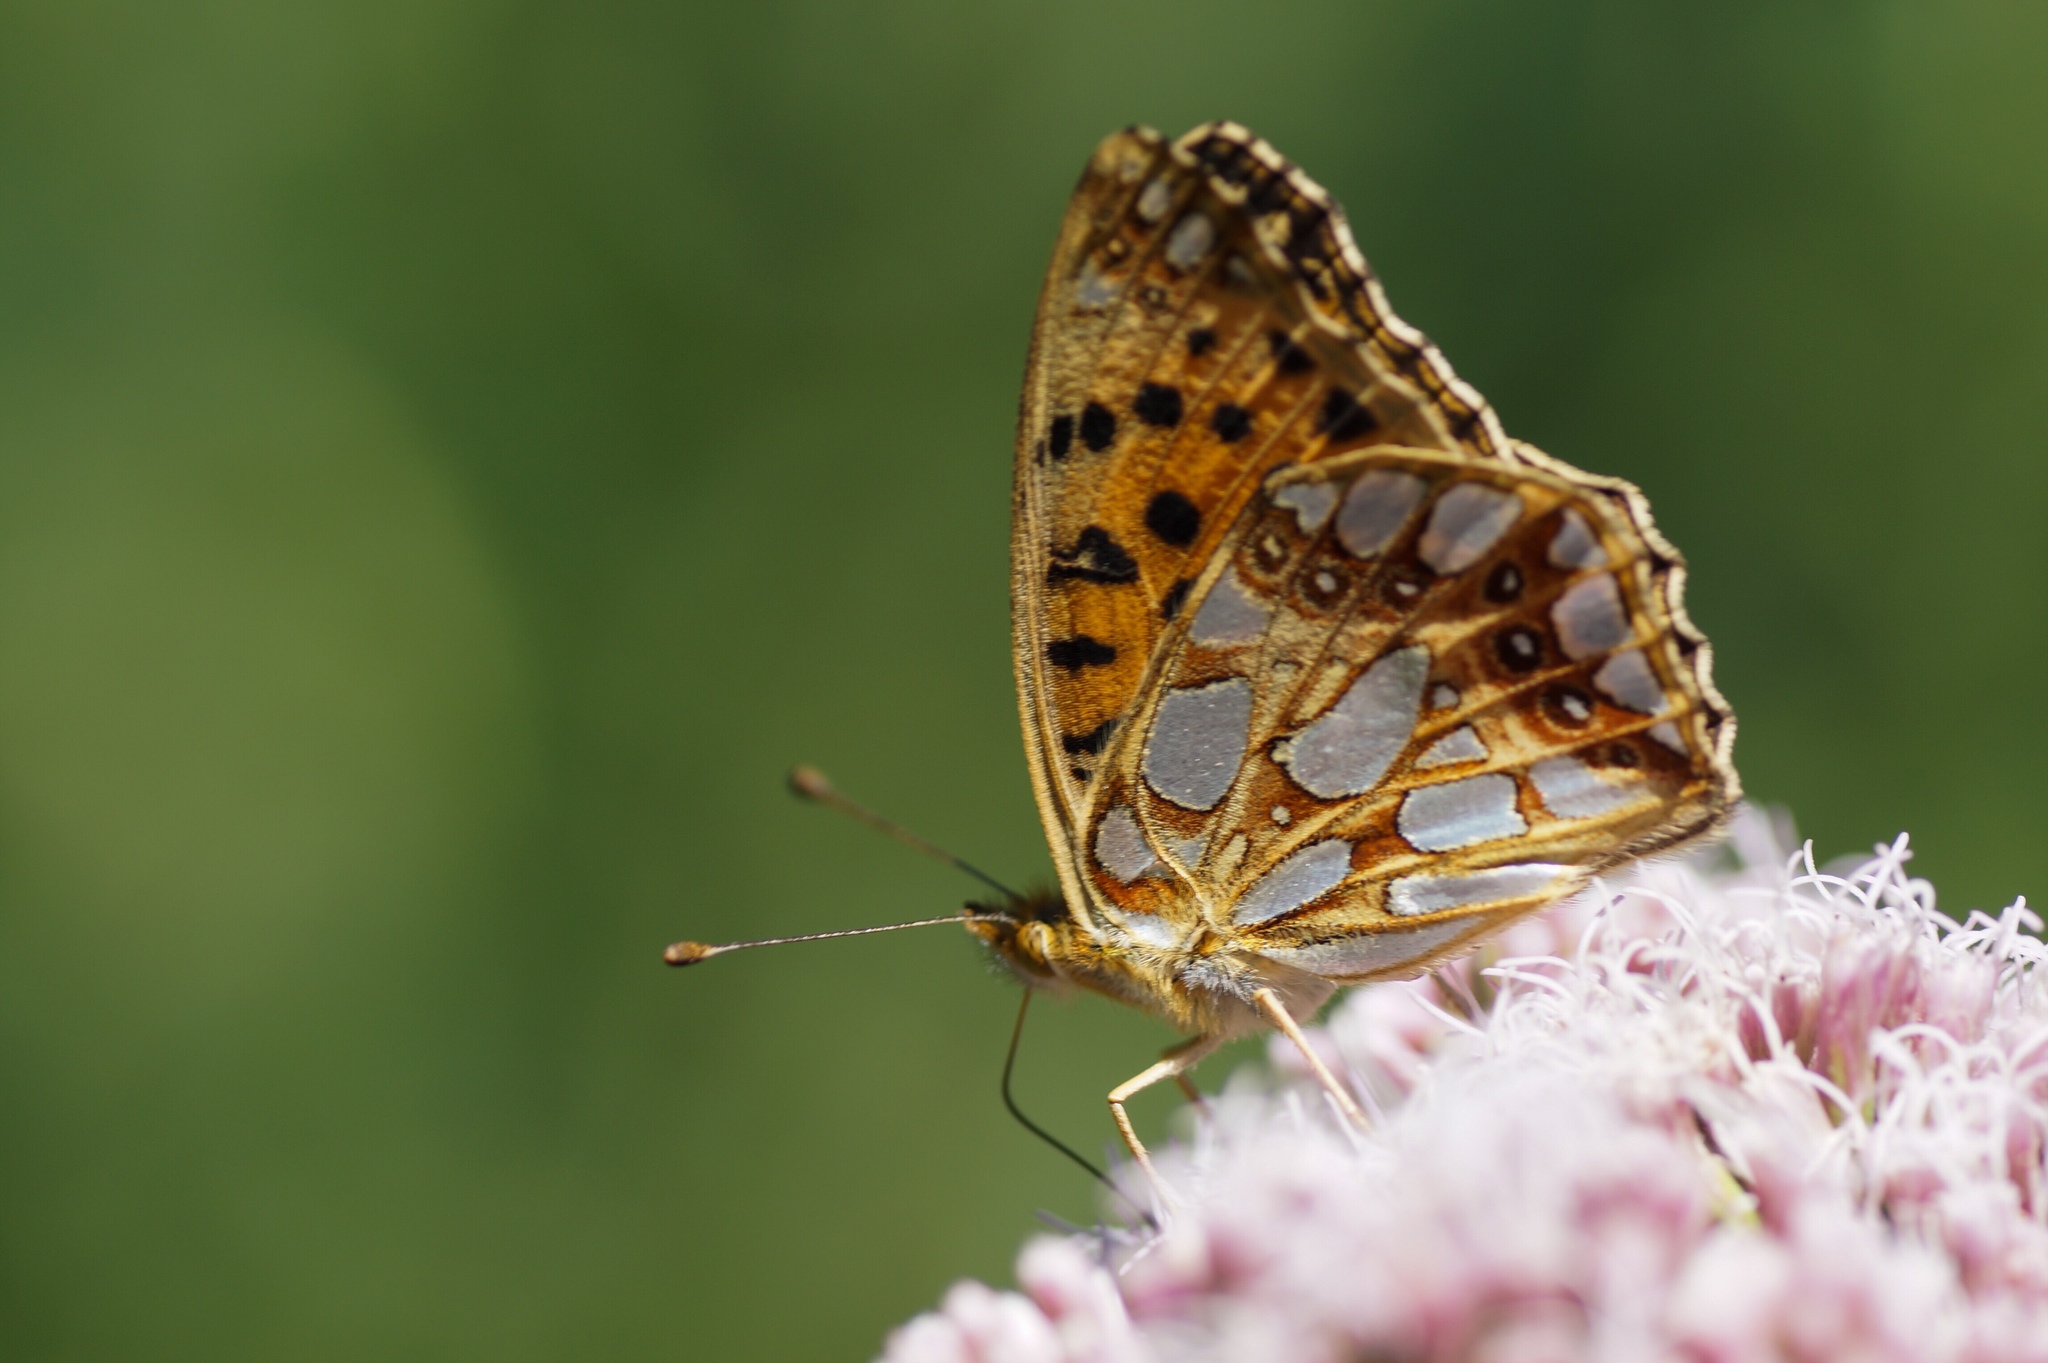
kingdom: Animalia
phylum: Arthropoda
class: Insecta
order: Lepidoptera
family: Nymphalidae
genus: Issoria
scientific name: Issoria lathonia
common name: Queen of spain fritillary
